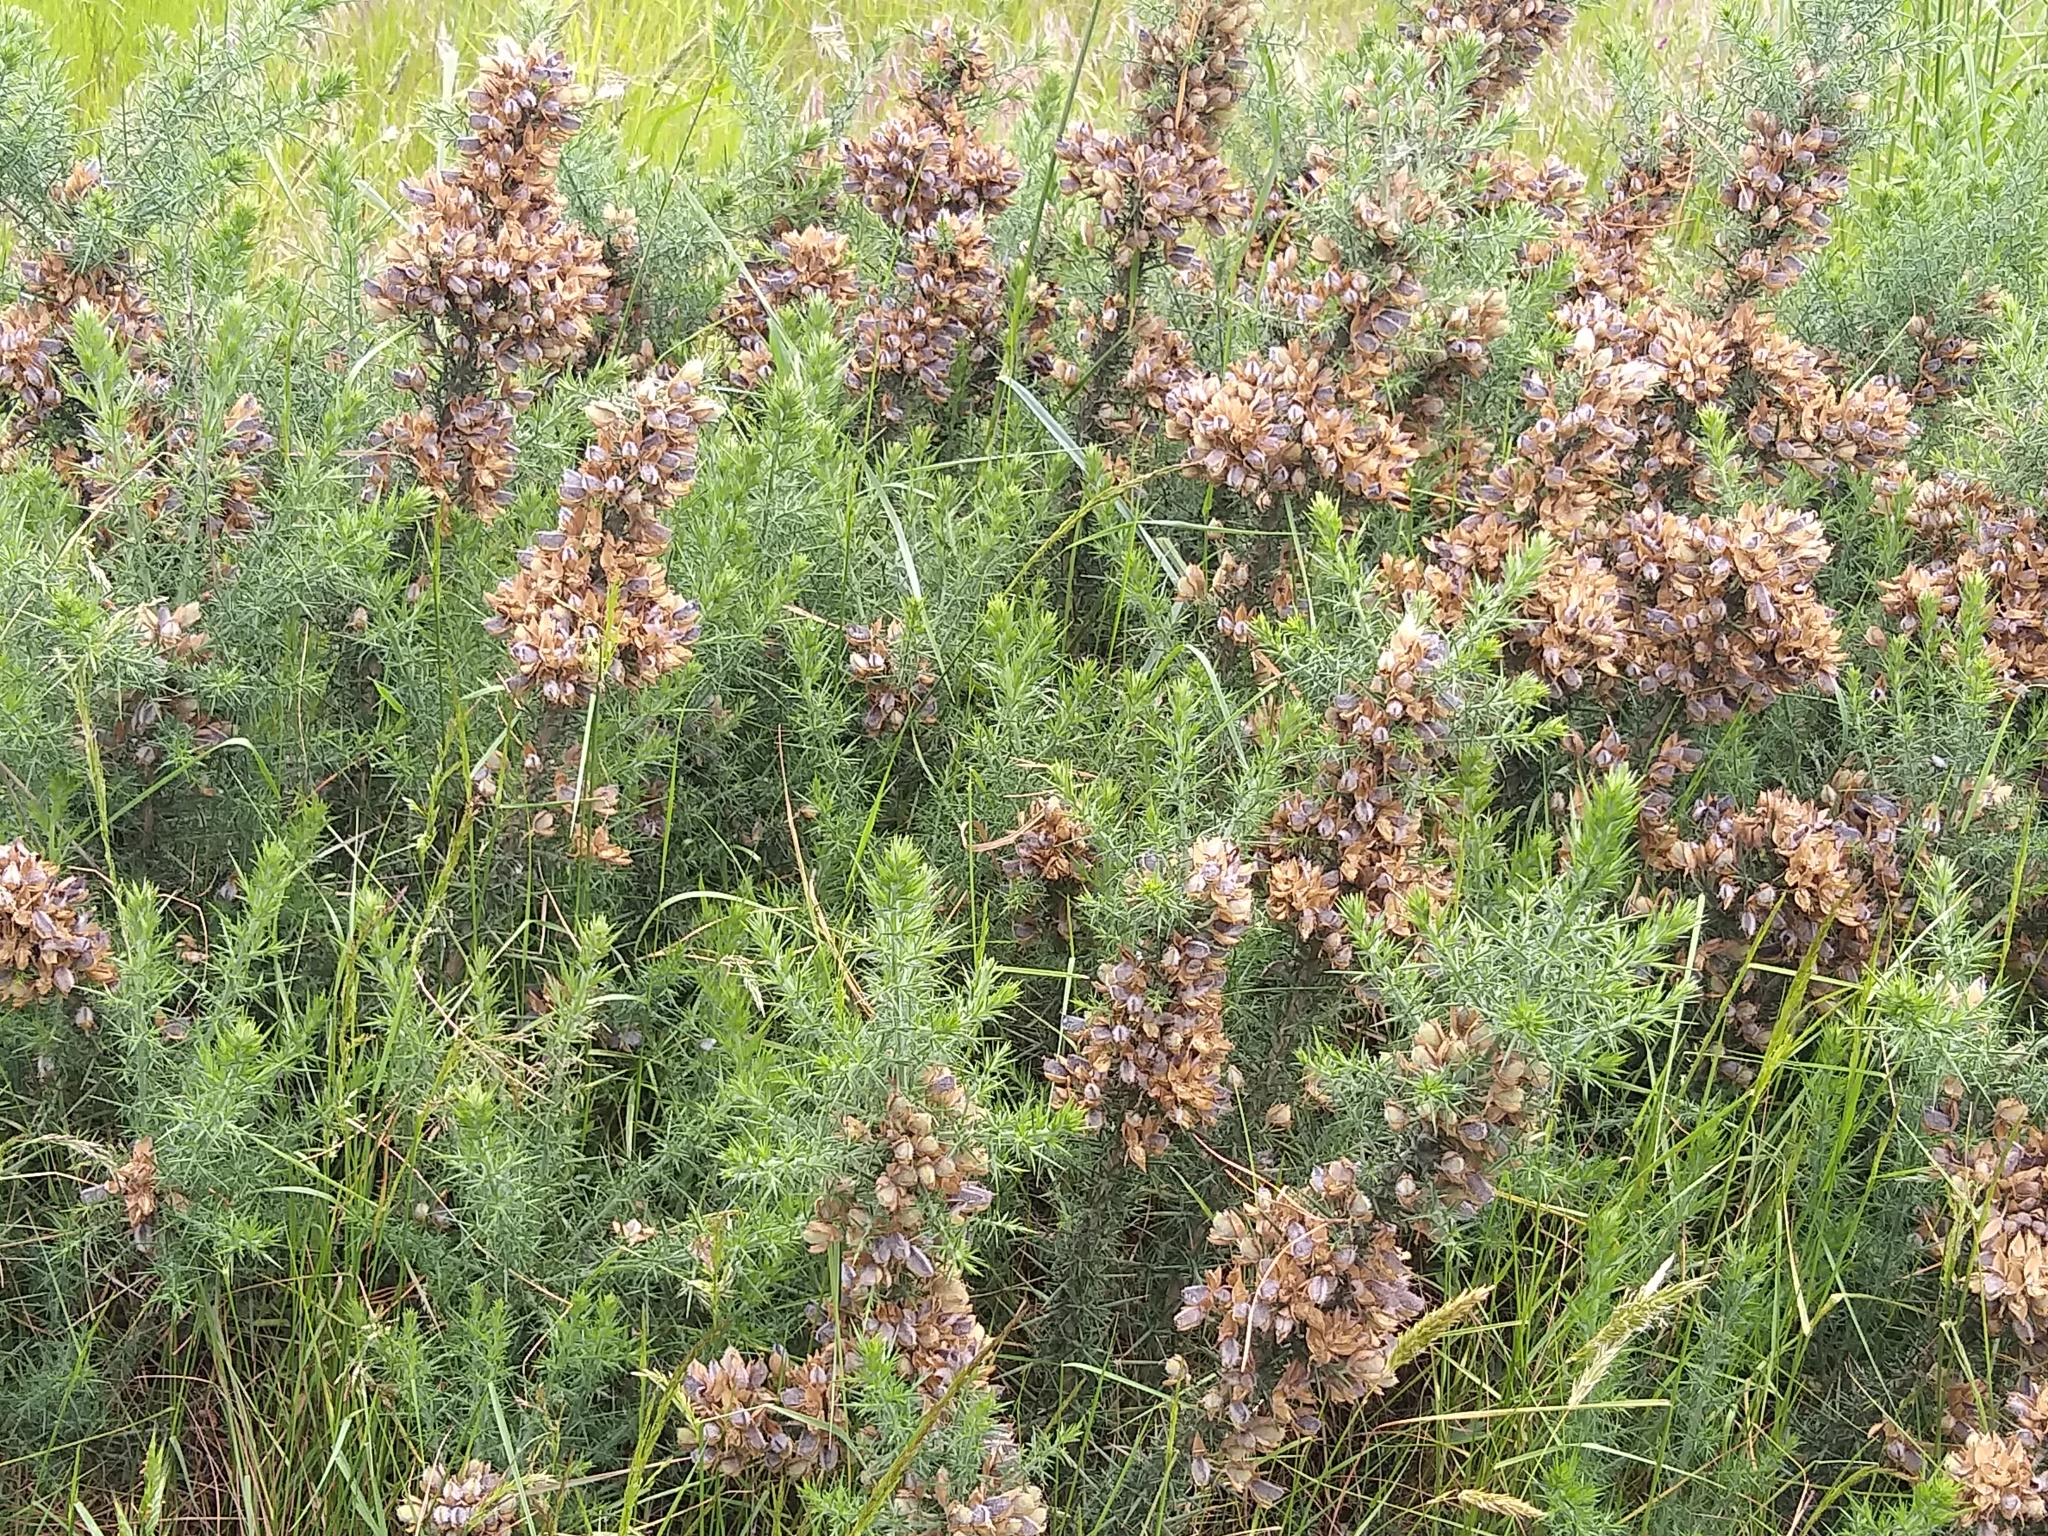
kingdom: Plantae
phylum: Tracheophyta
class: Magnoliopsida
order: Fabales
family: Fabaceae
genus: Ulex
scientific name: Ulex europaeus
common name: Common gorse
